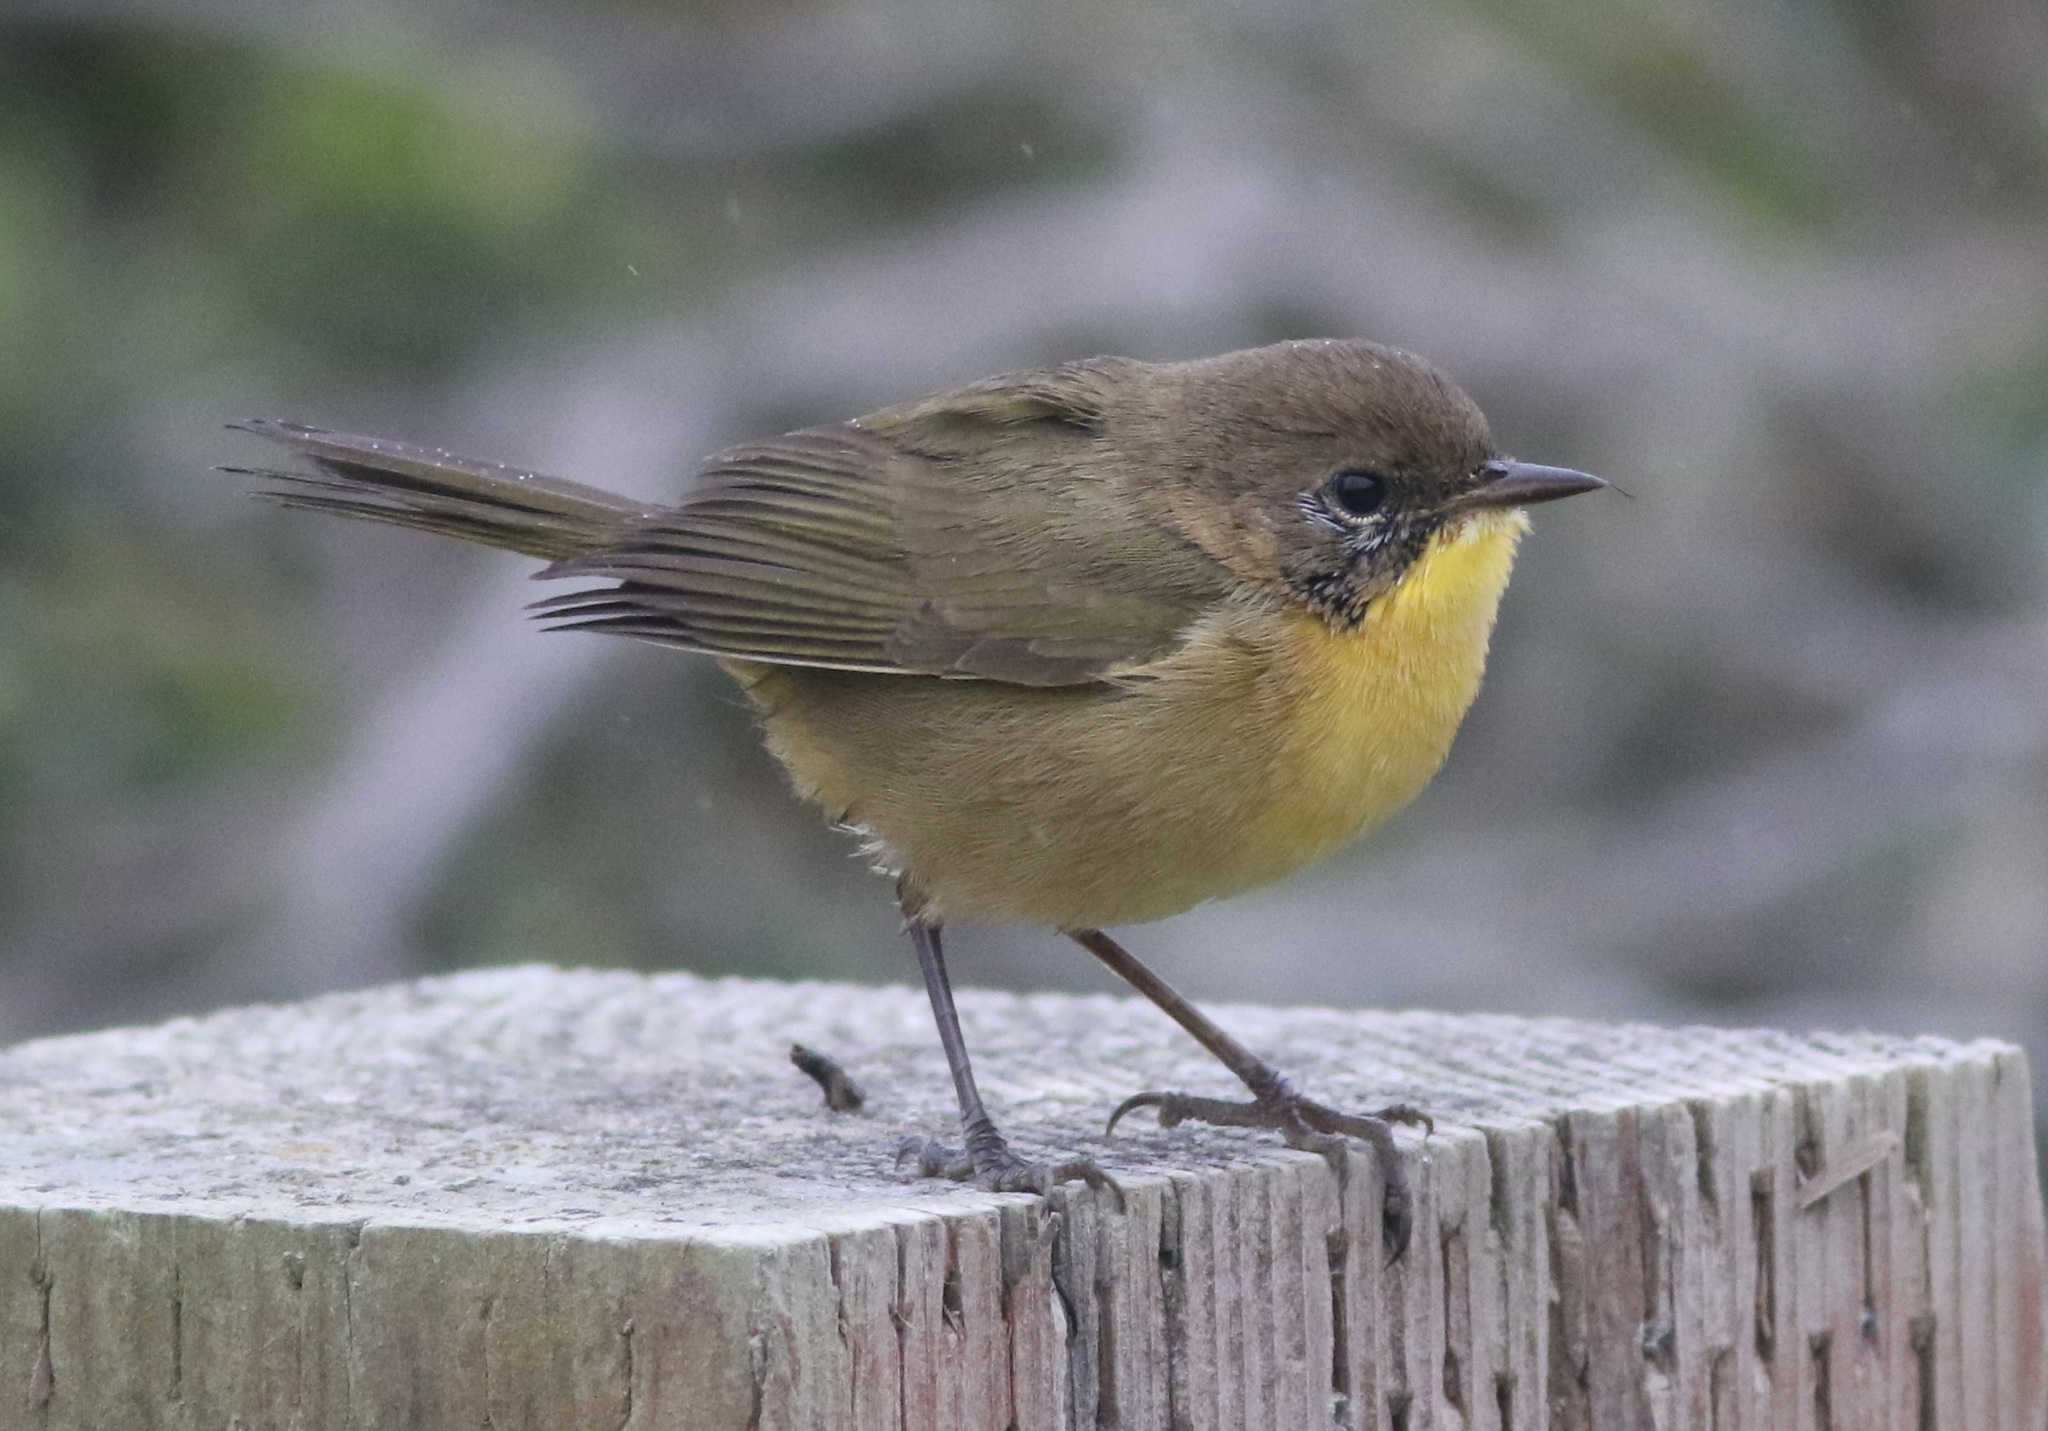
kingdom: Animalia
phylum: Chordata
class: Aves
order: Passeriformes
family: Parulidae
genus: Geothlypis
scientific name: Geothlypis trichas
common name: Common yellowthroat
